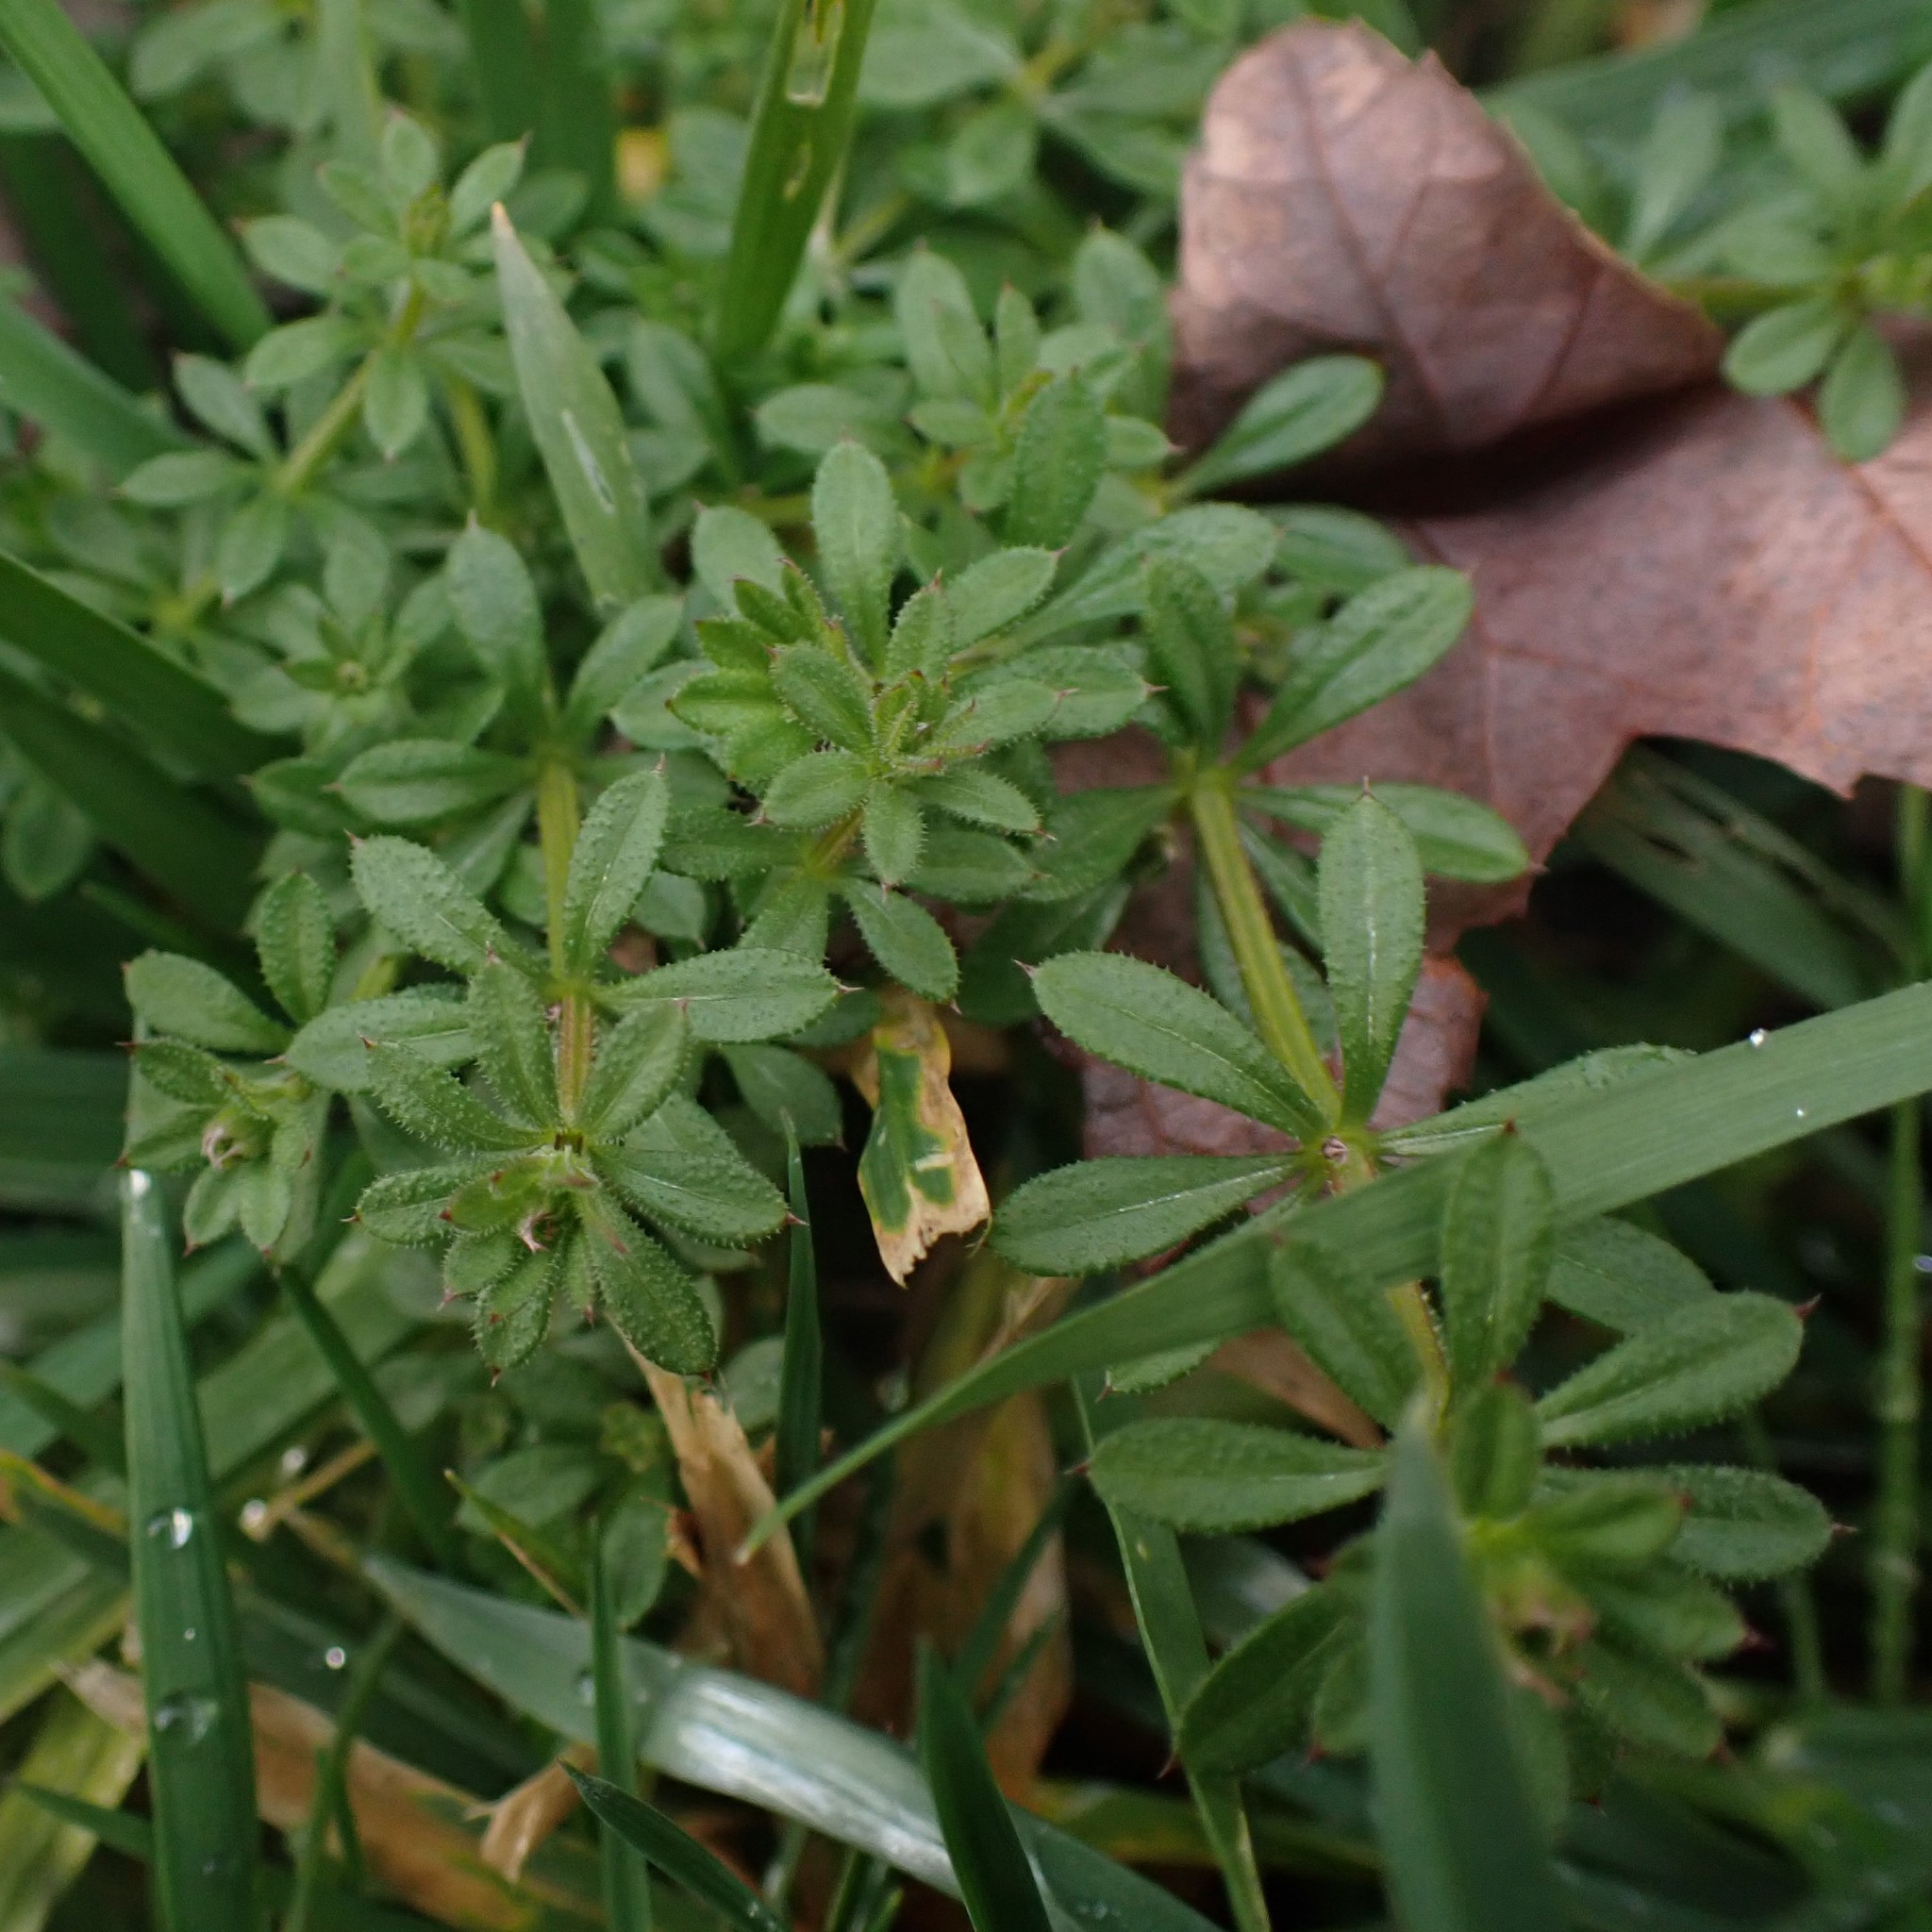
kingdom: Plantae
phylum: Tracheophyta
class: Magnoliopsida
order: Gentianales
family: Rubiaceae
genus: Galium
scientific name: Galium aparine
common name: Cleavers
